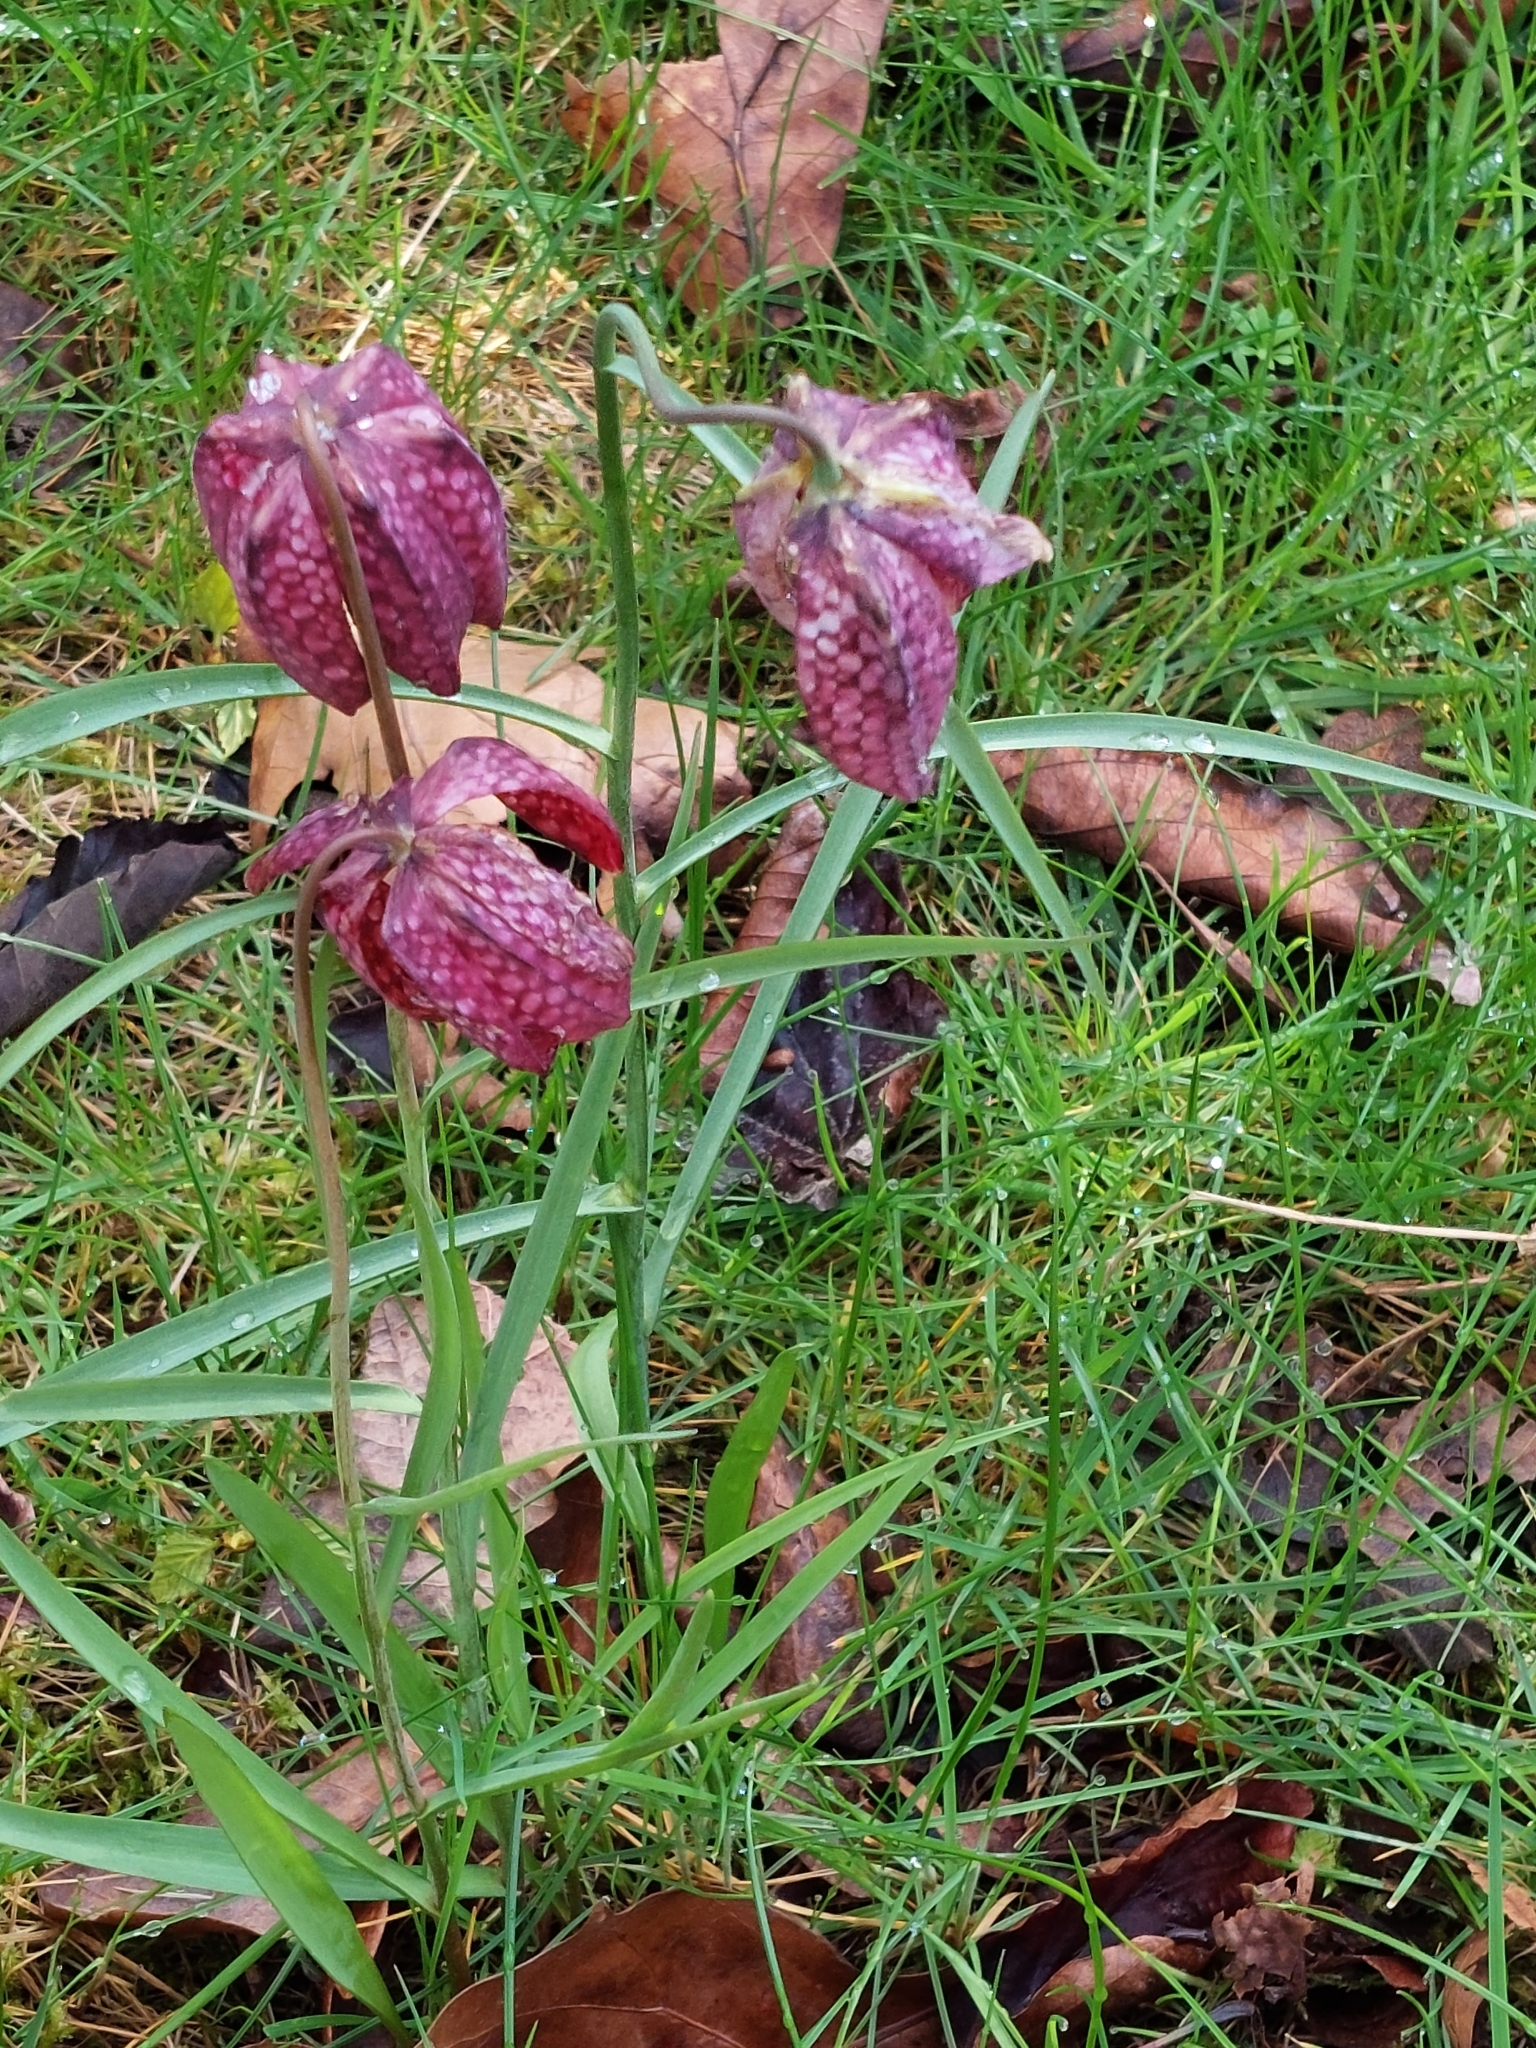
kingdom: Plantae
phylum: Tracheophyta
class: Liliopsida
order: Liliales
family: Liliaceae
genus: Fritillaria
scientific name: Fritillaria meleagris
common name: Fritillary
